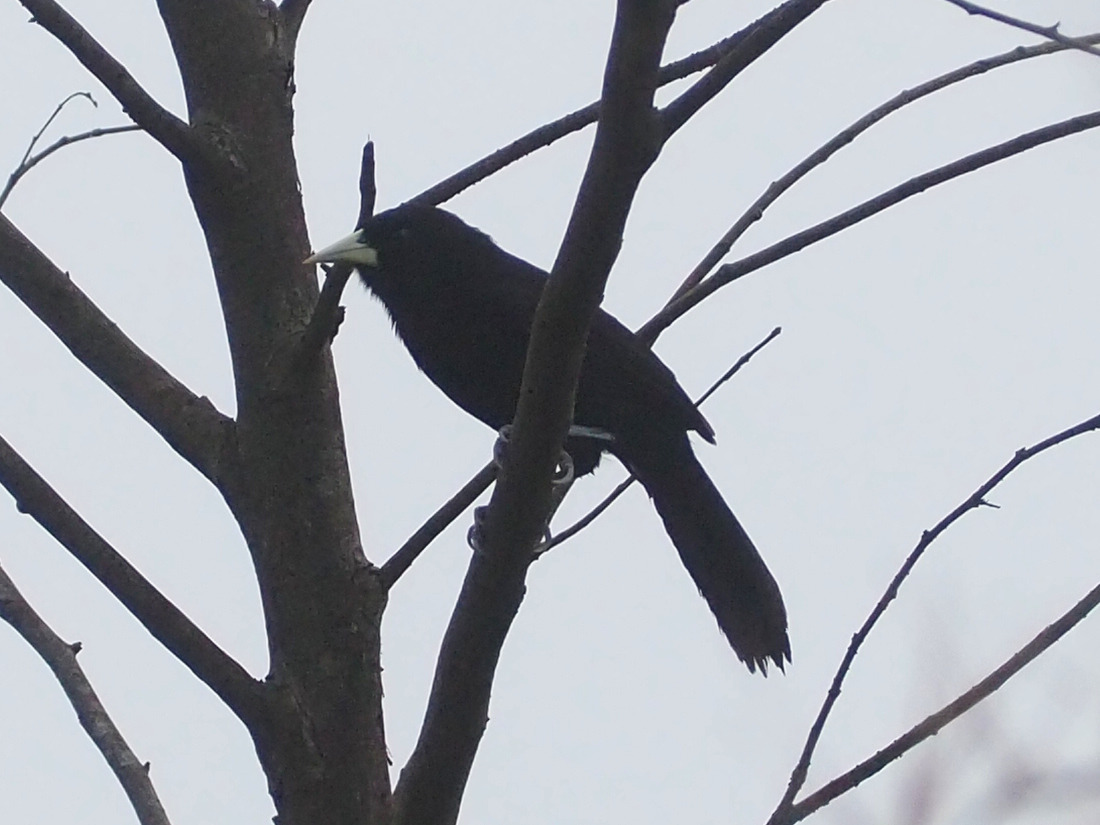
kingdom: Animalia
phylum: Chordata
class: Aves
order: Passeriformes
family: Icteridae
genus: Amblycercus
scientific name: Amblycercus holosericeus
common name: Yellow-billed cacique
